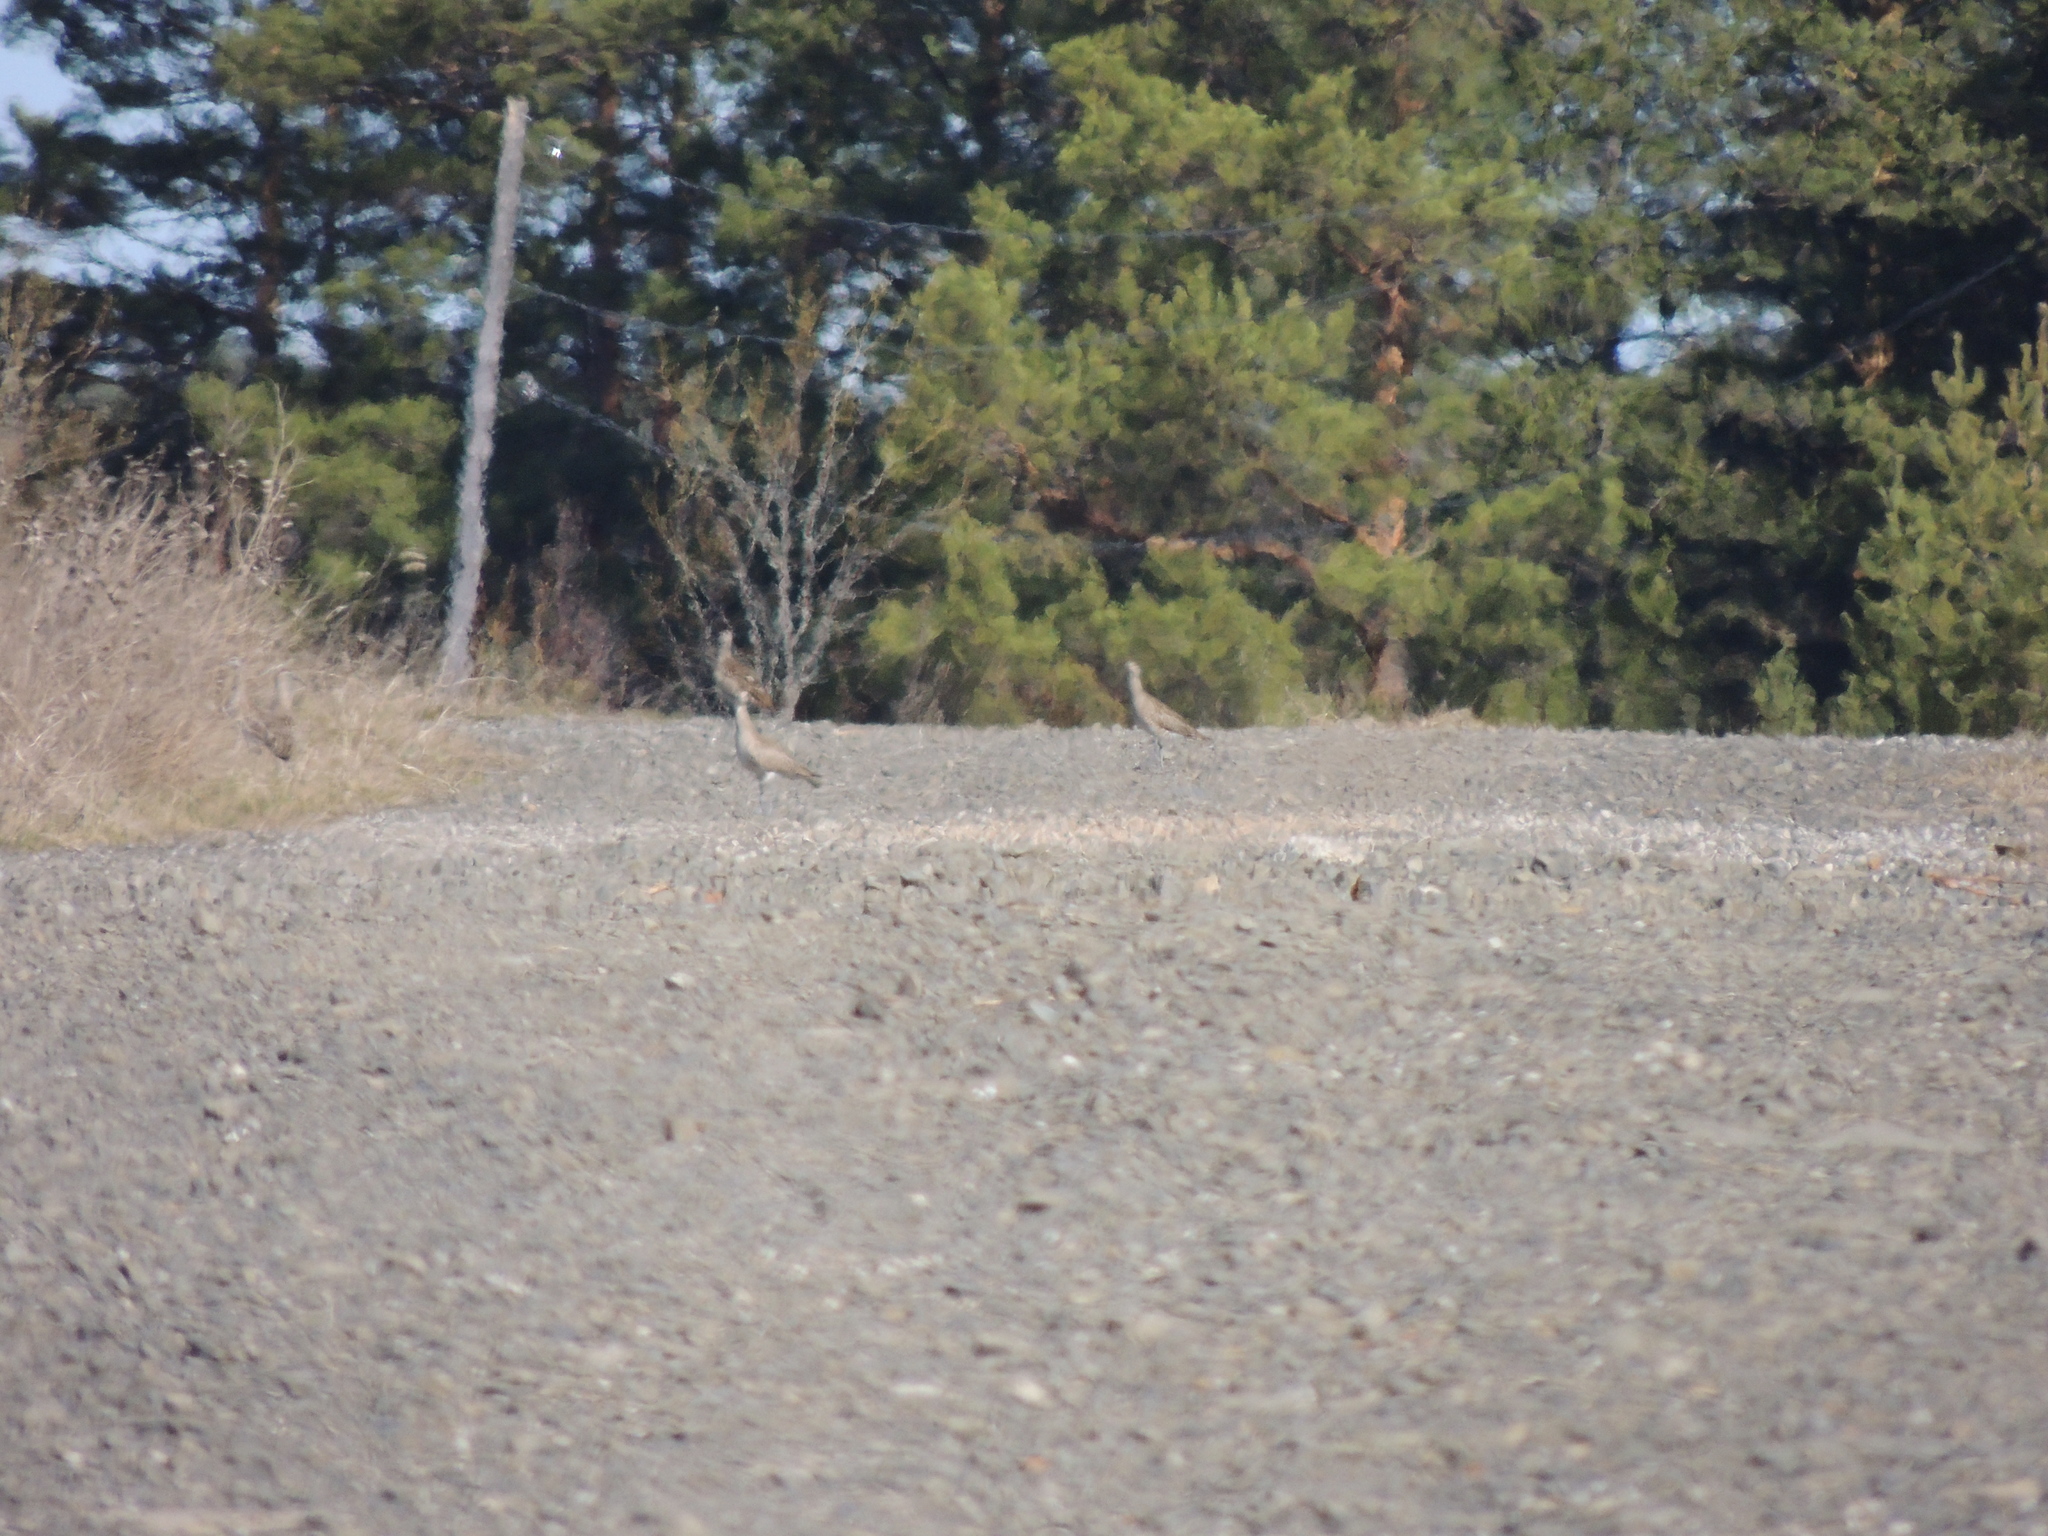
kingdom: Animalia
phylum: Chordata
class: Aves
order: Charadriiformes
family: Scolopacidae
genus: Numenius
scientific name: Numenius phaeopus
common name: Whimbrel
